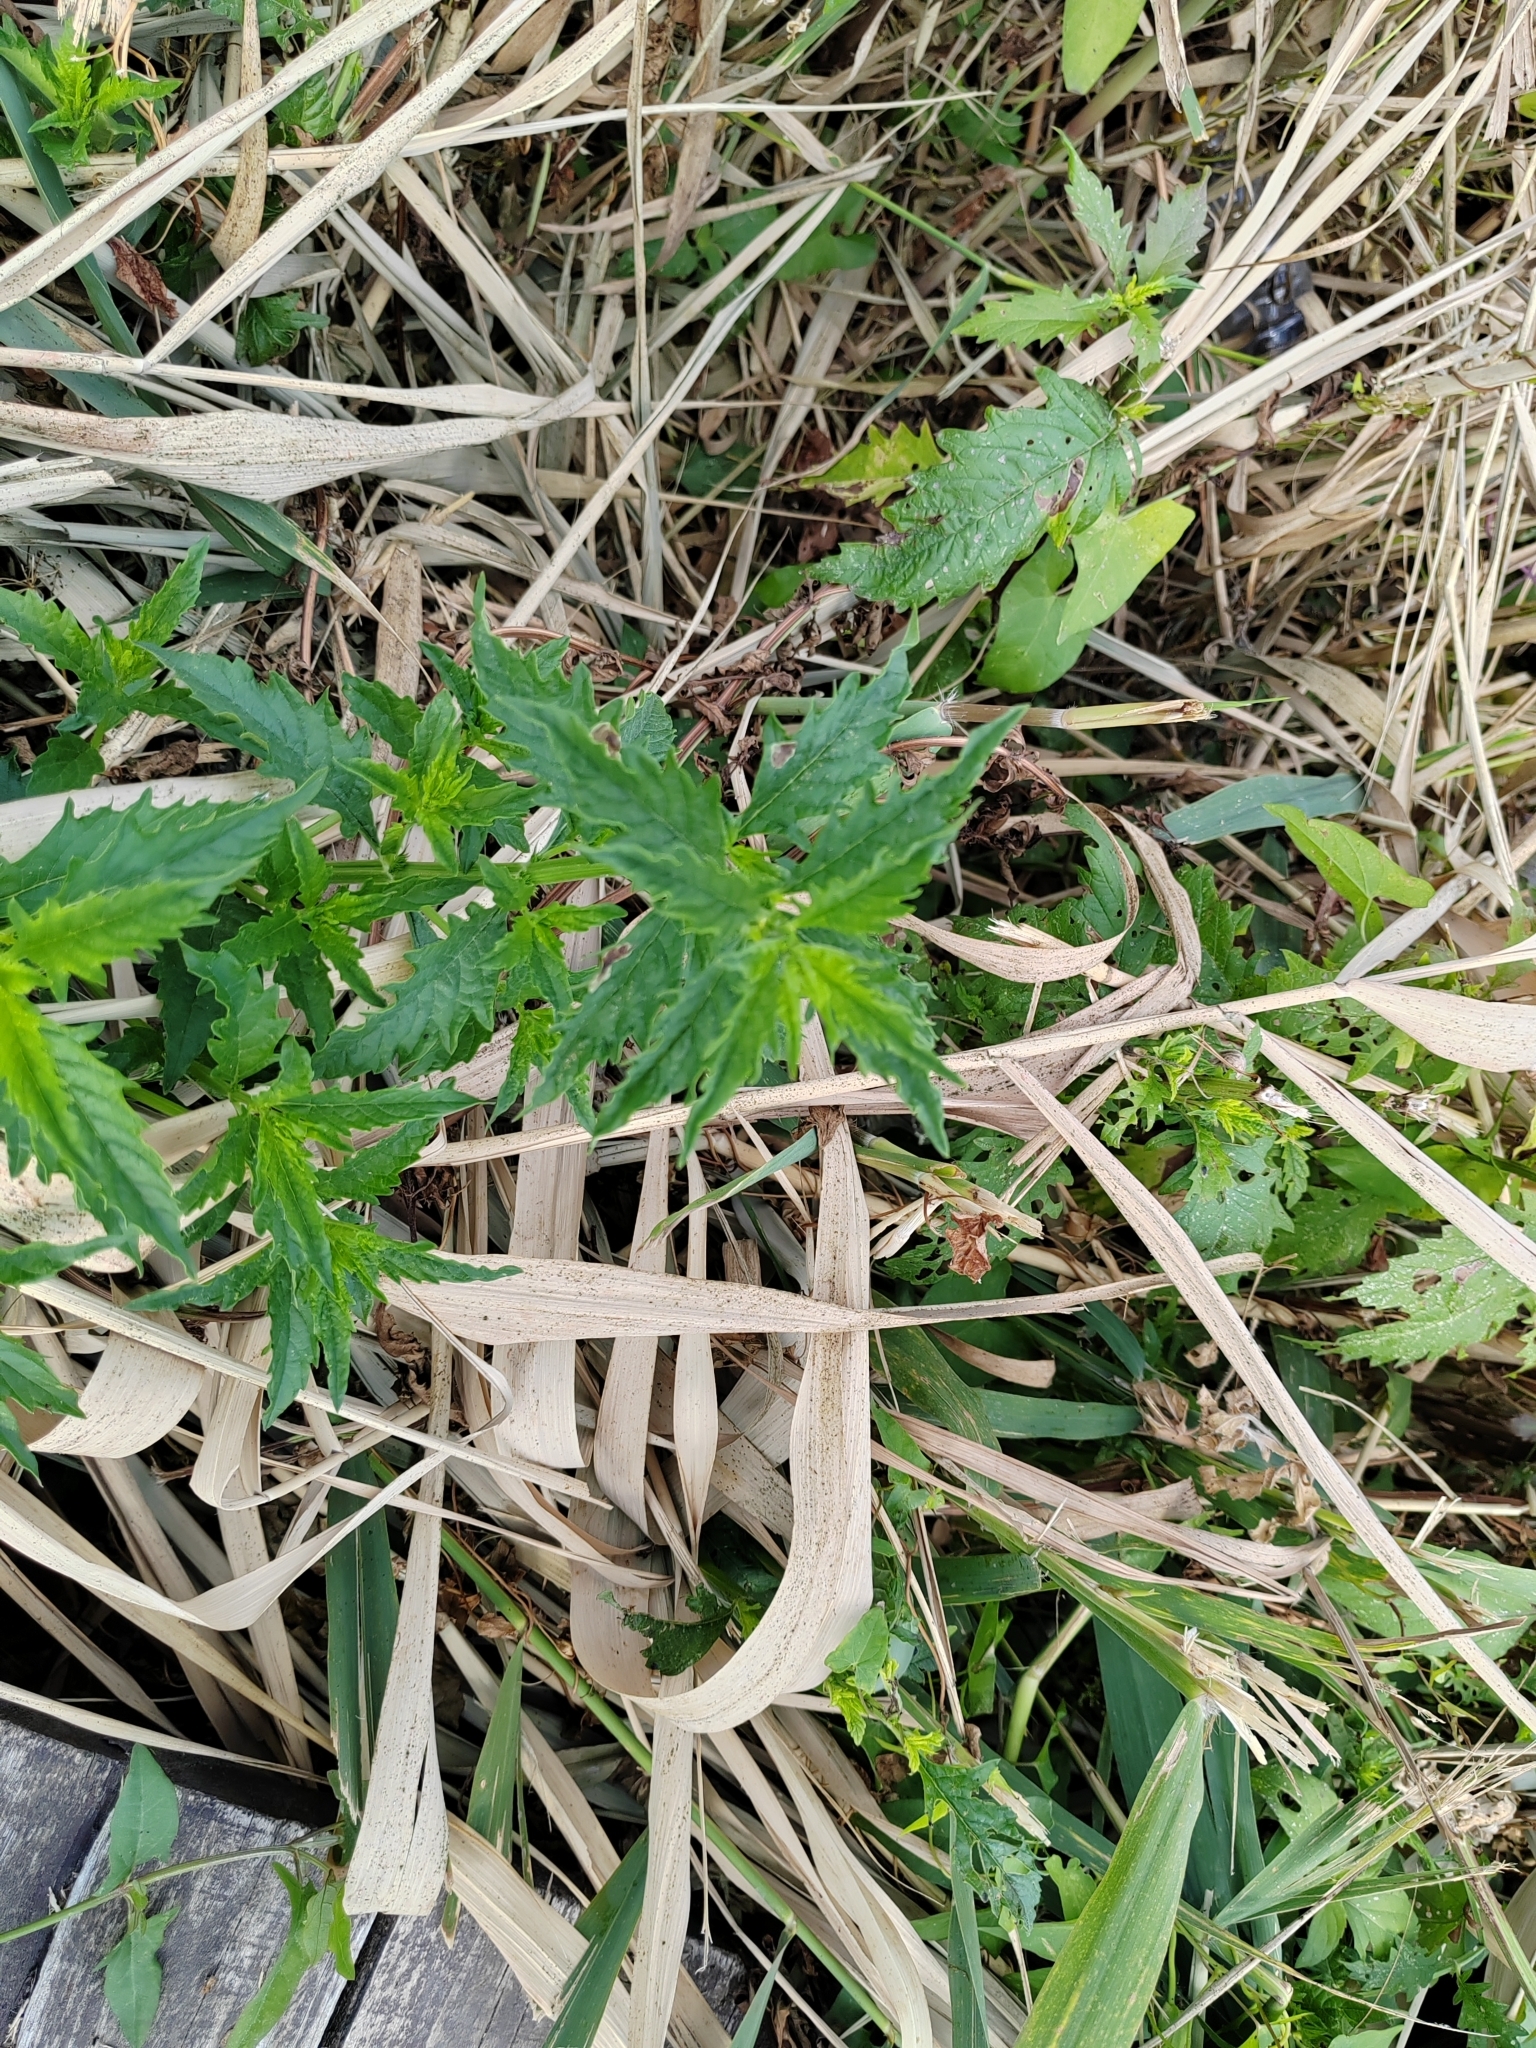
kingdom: Plantae
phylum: Tracheophyta
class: Magnoliopsida
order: Lamiales
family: Lamiaceae
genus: Lycopus
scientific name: Lycopus europaeus
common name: European bugleweed
